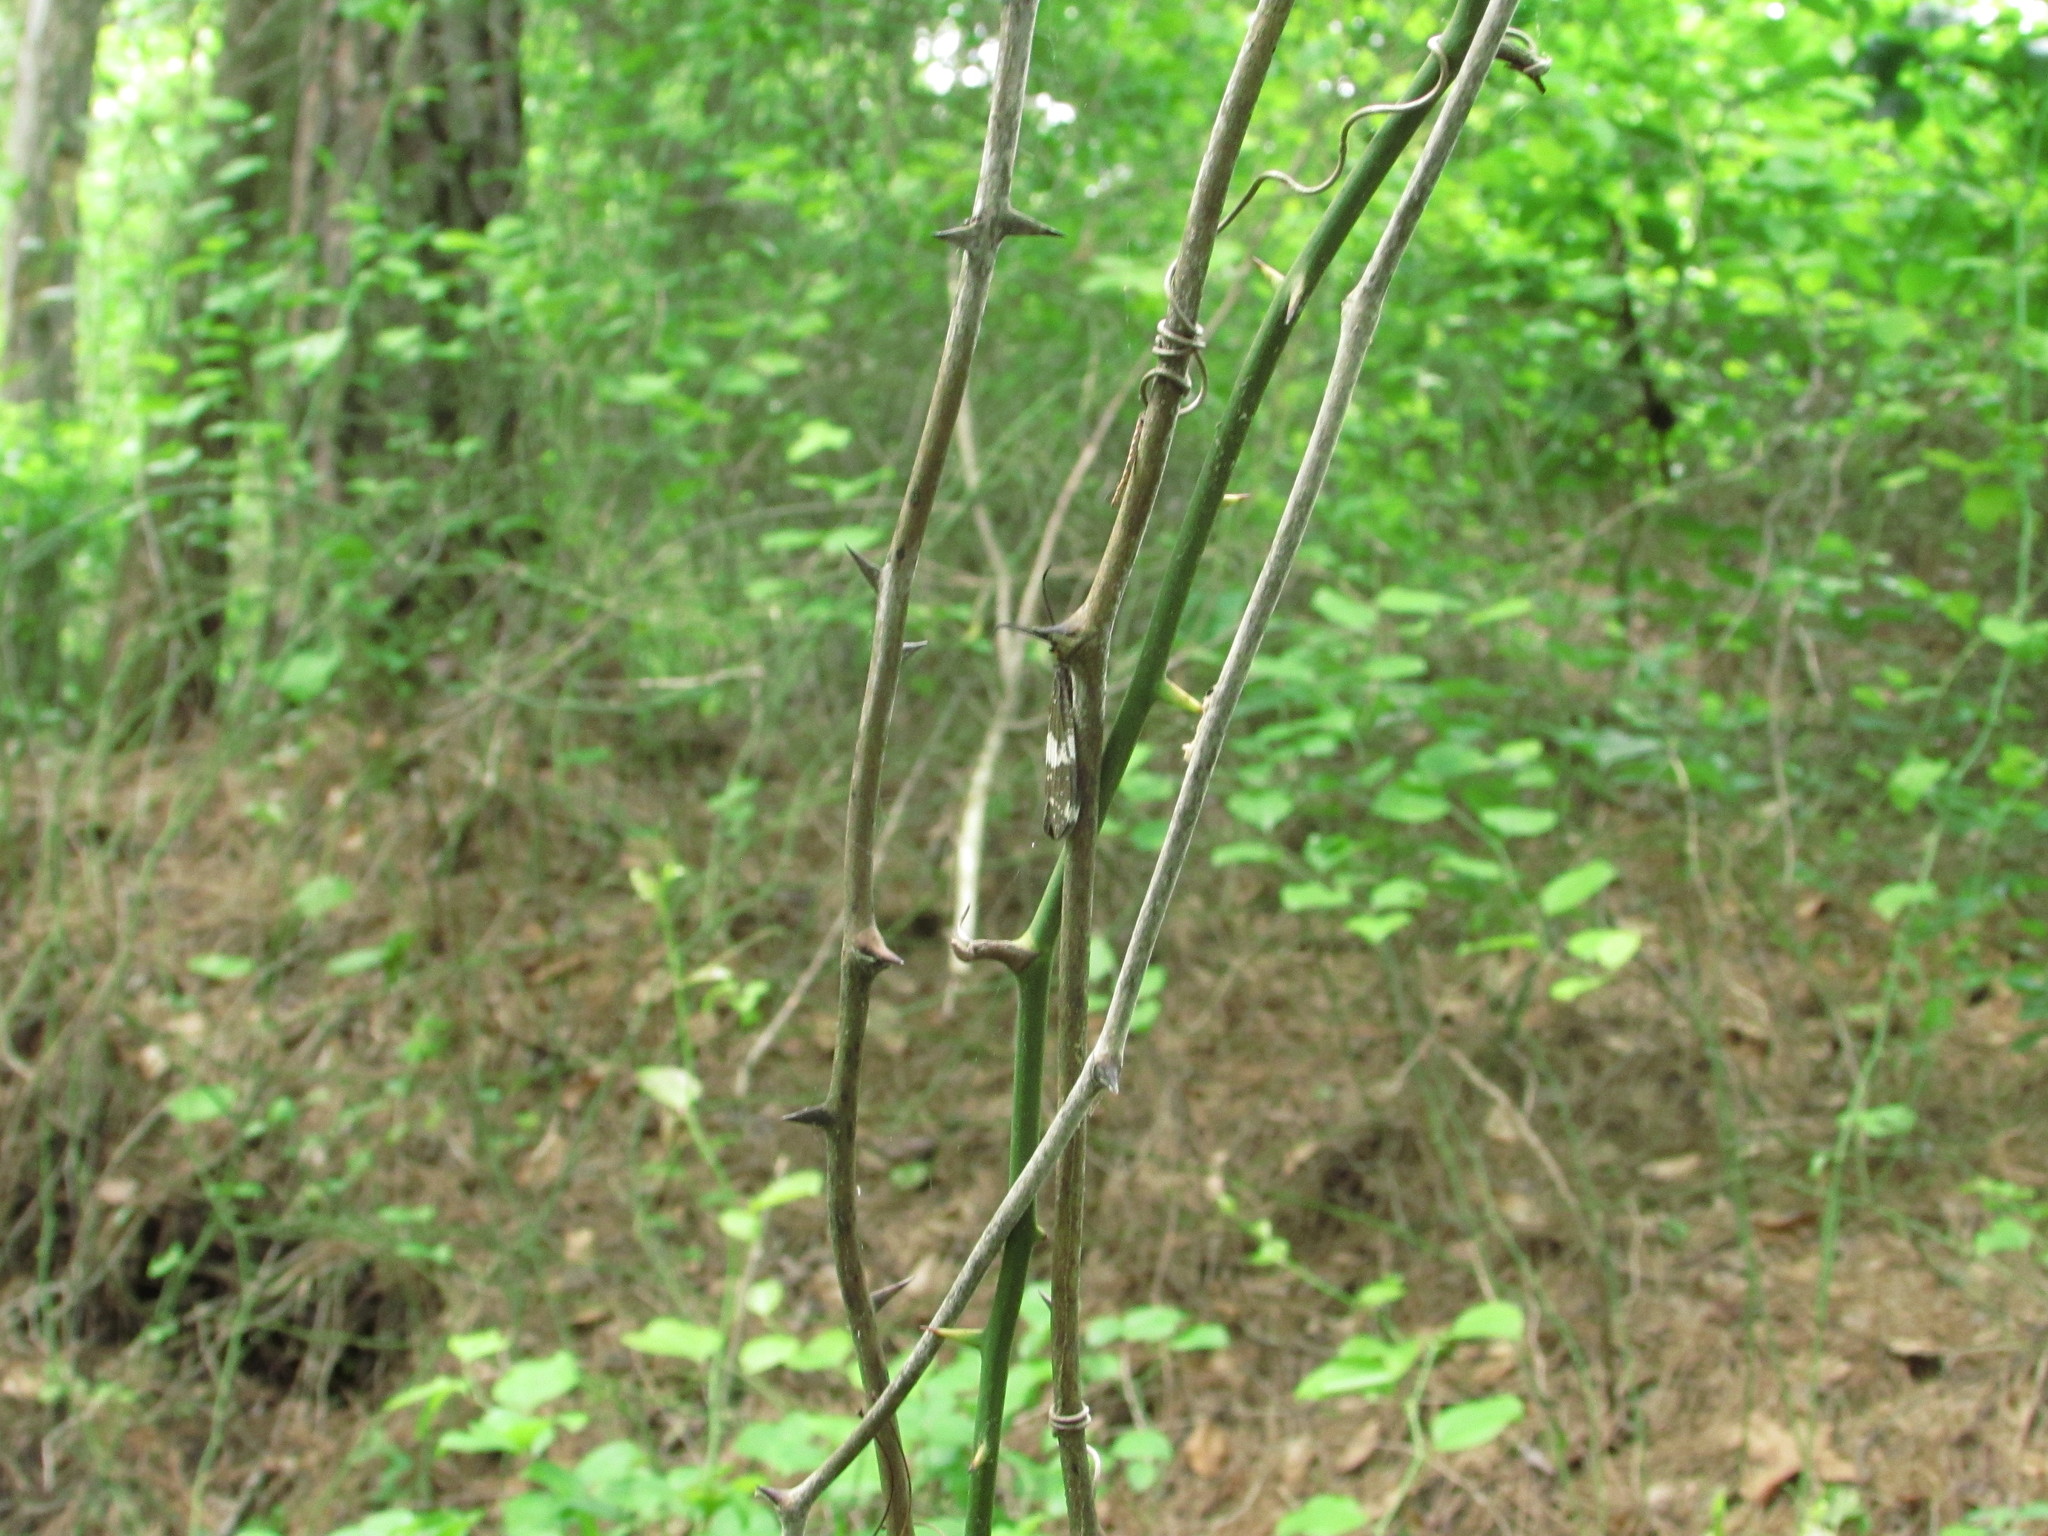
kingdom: Animalia
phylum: Arthropoda
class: Insecta
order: Megaloptera
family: Corydalidae
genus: Nigronia
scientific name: Nigronia fasciata
